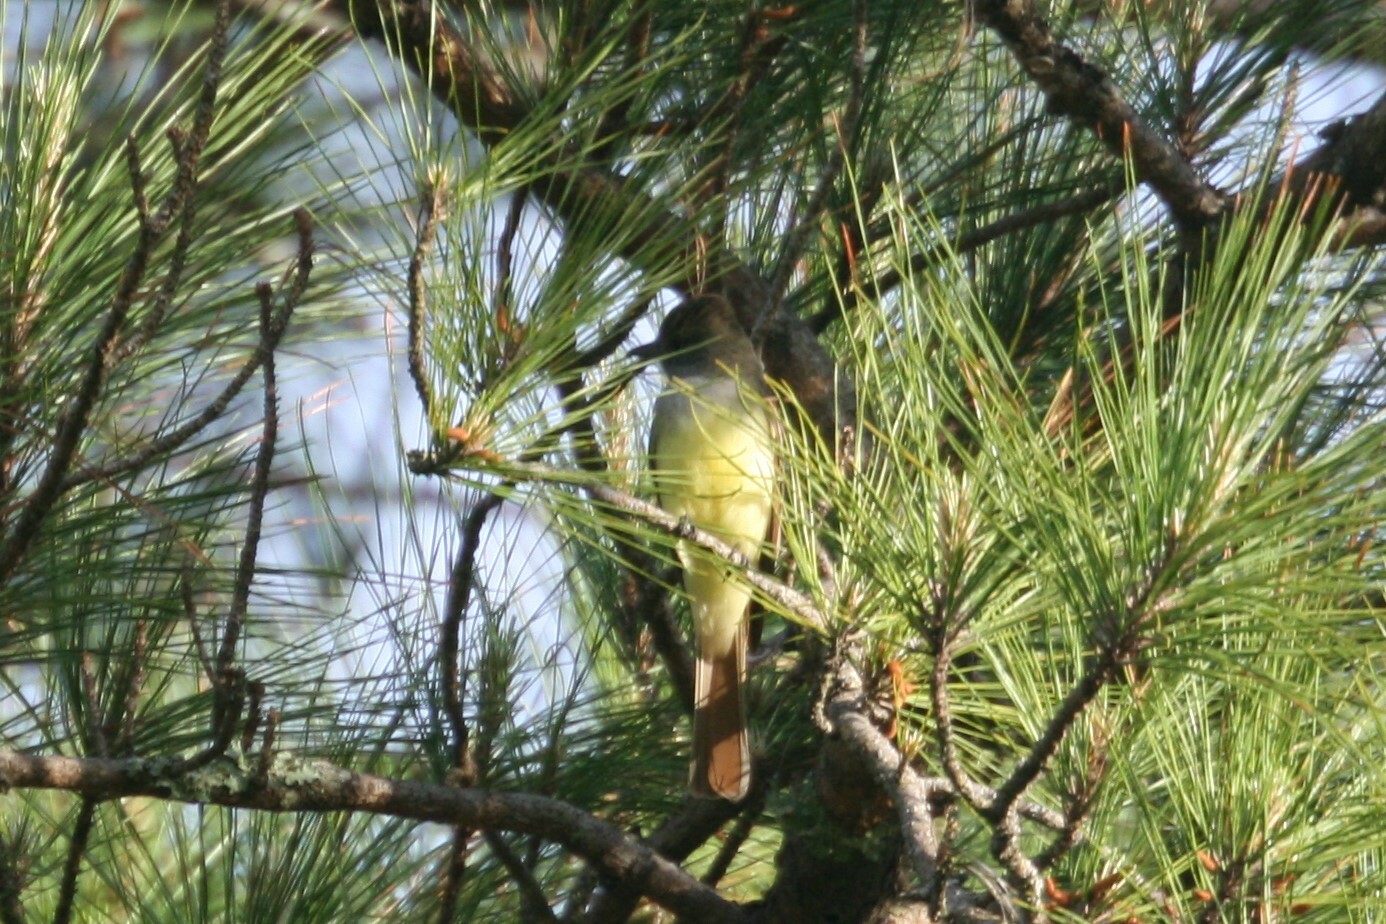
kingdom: Animalia
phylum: Chordata
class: Aves
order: Passeriformes
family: Tyrannidae
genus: Myiarchus
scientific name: Myiarchus crinitus
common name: Great crested flycatcher
